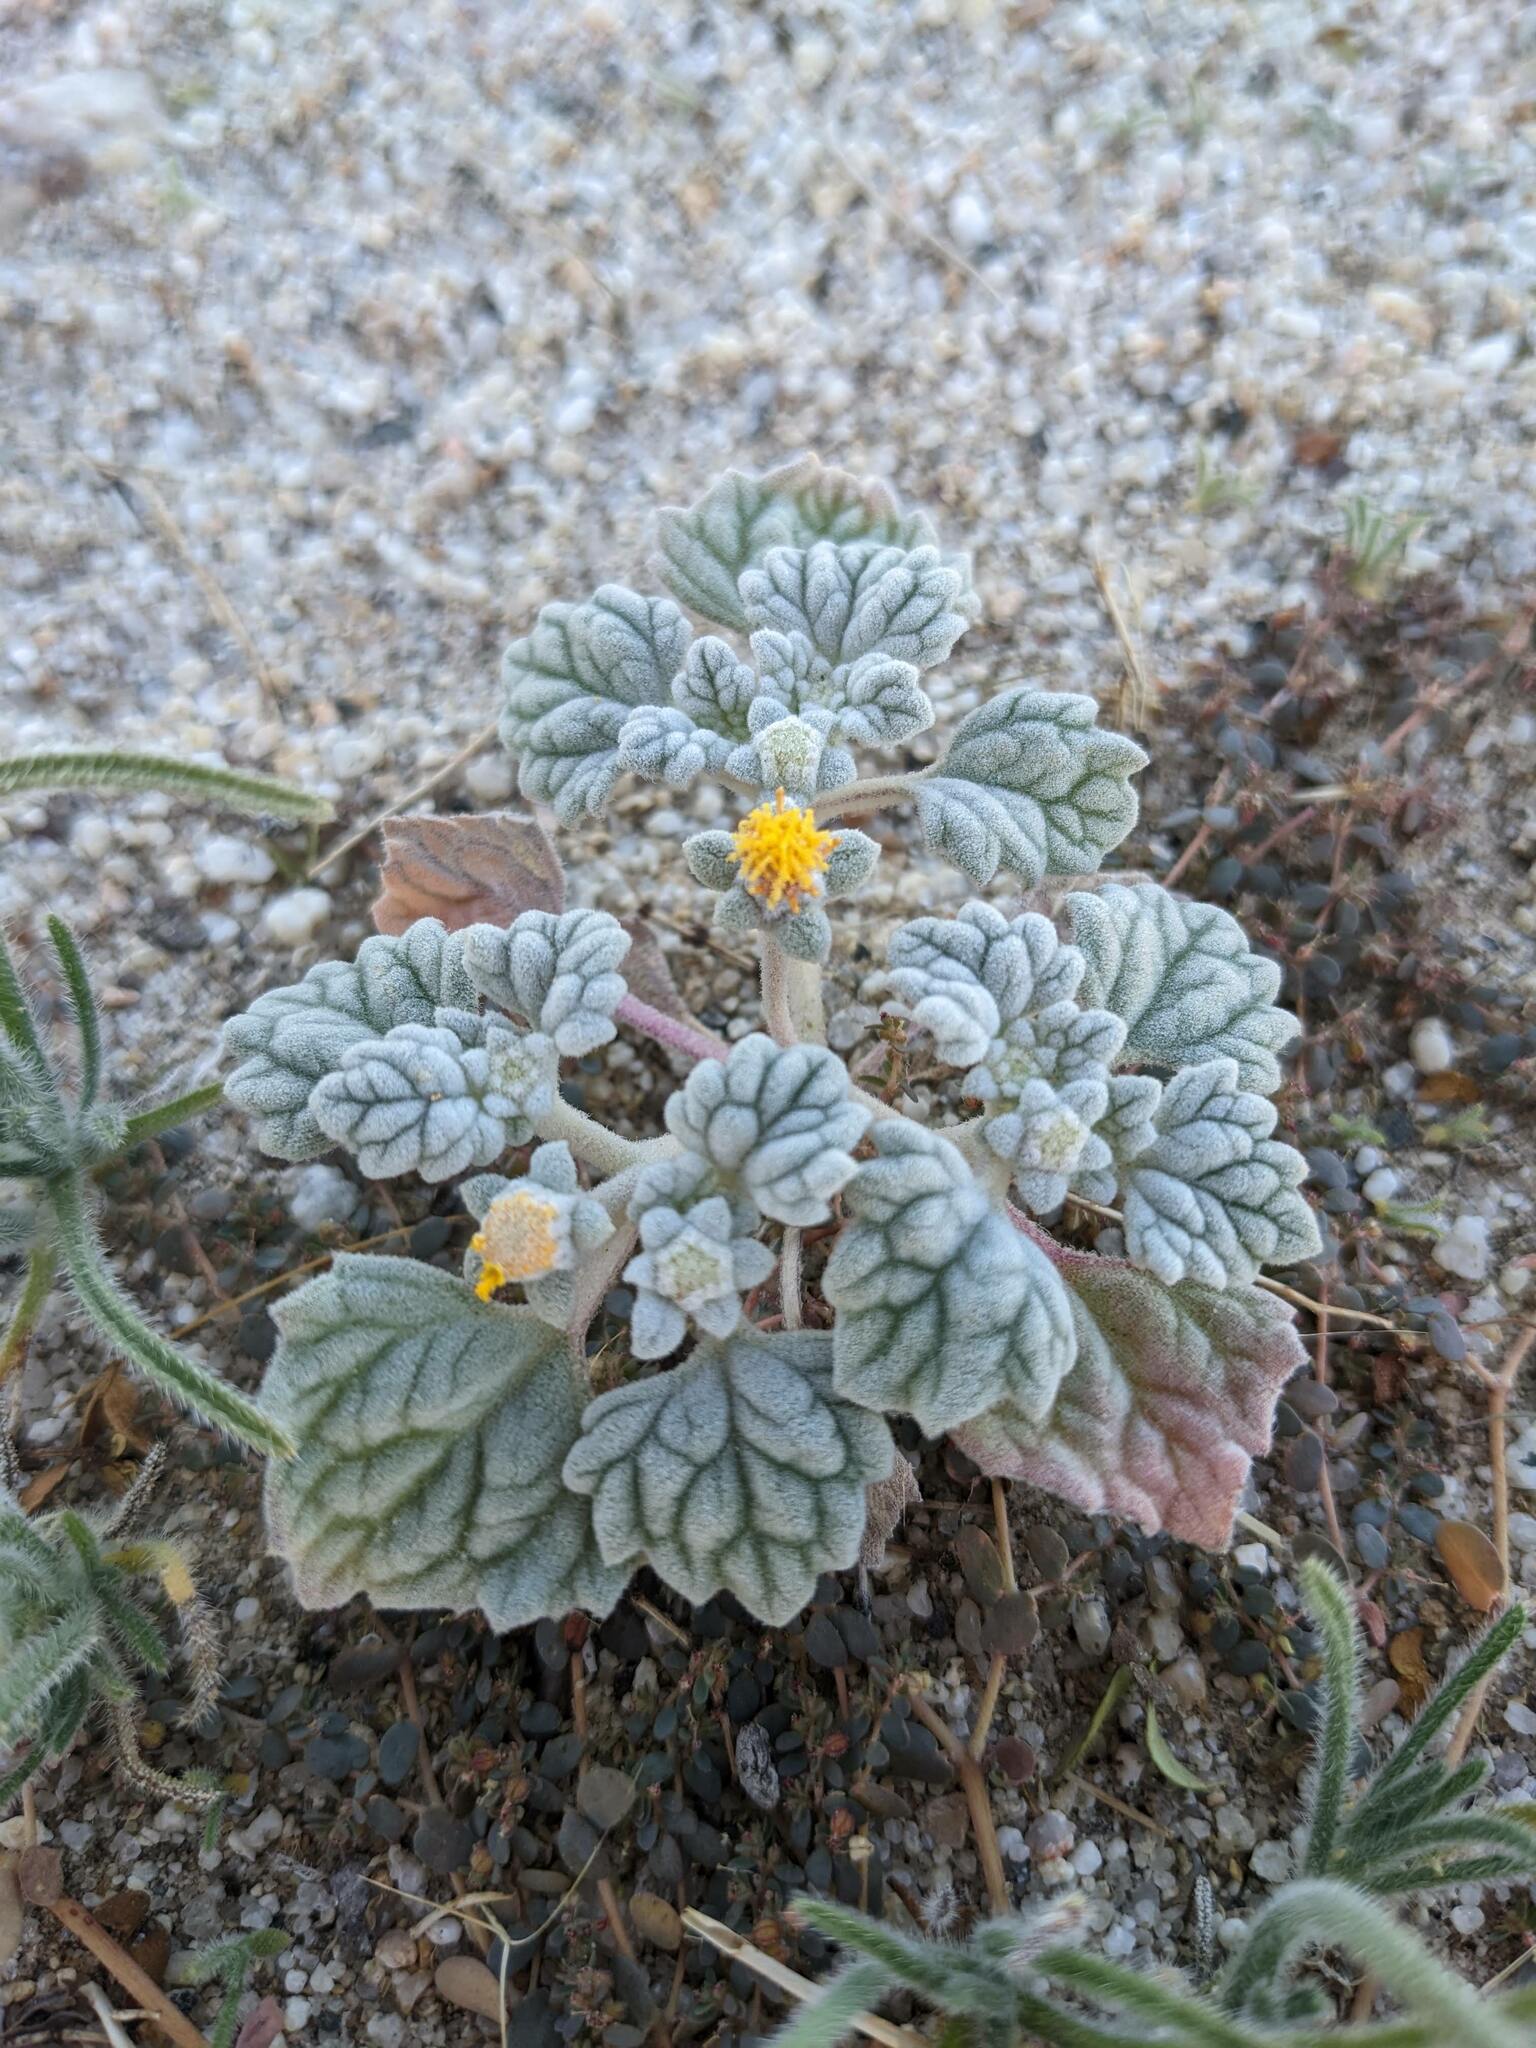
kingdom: Plantae
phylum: Tracheophyta
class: Magnoliopsida
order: Asterales
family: Asteraceae
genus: Psathyrotes
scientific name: Psathyrotes ramosissima
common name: Turtleback
